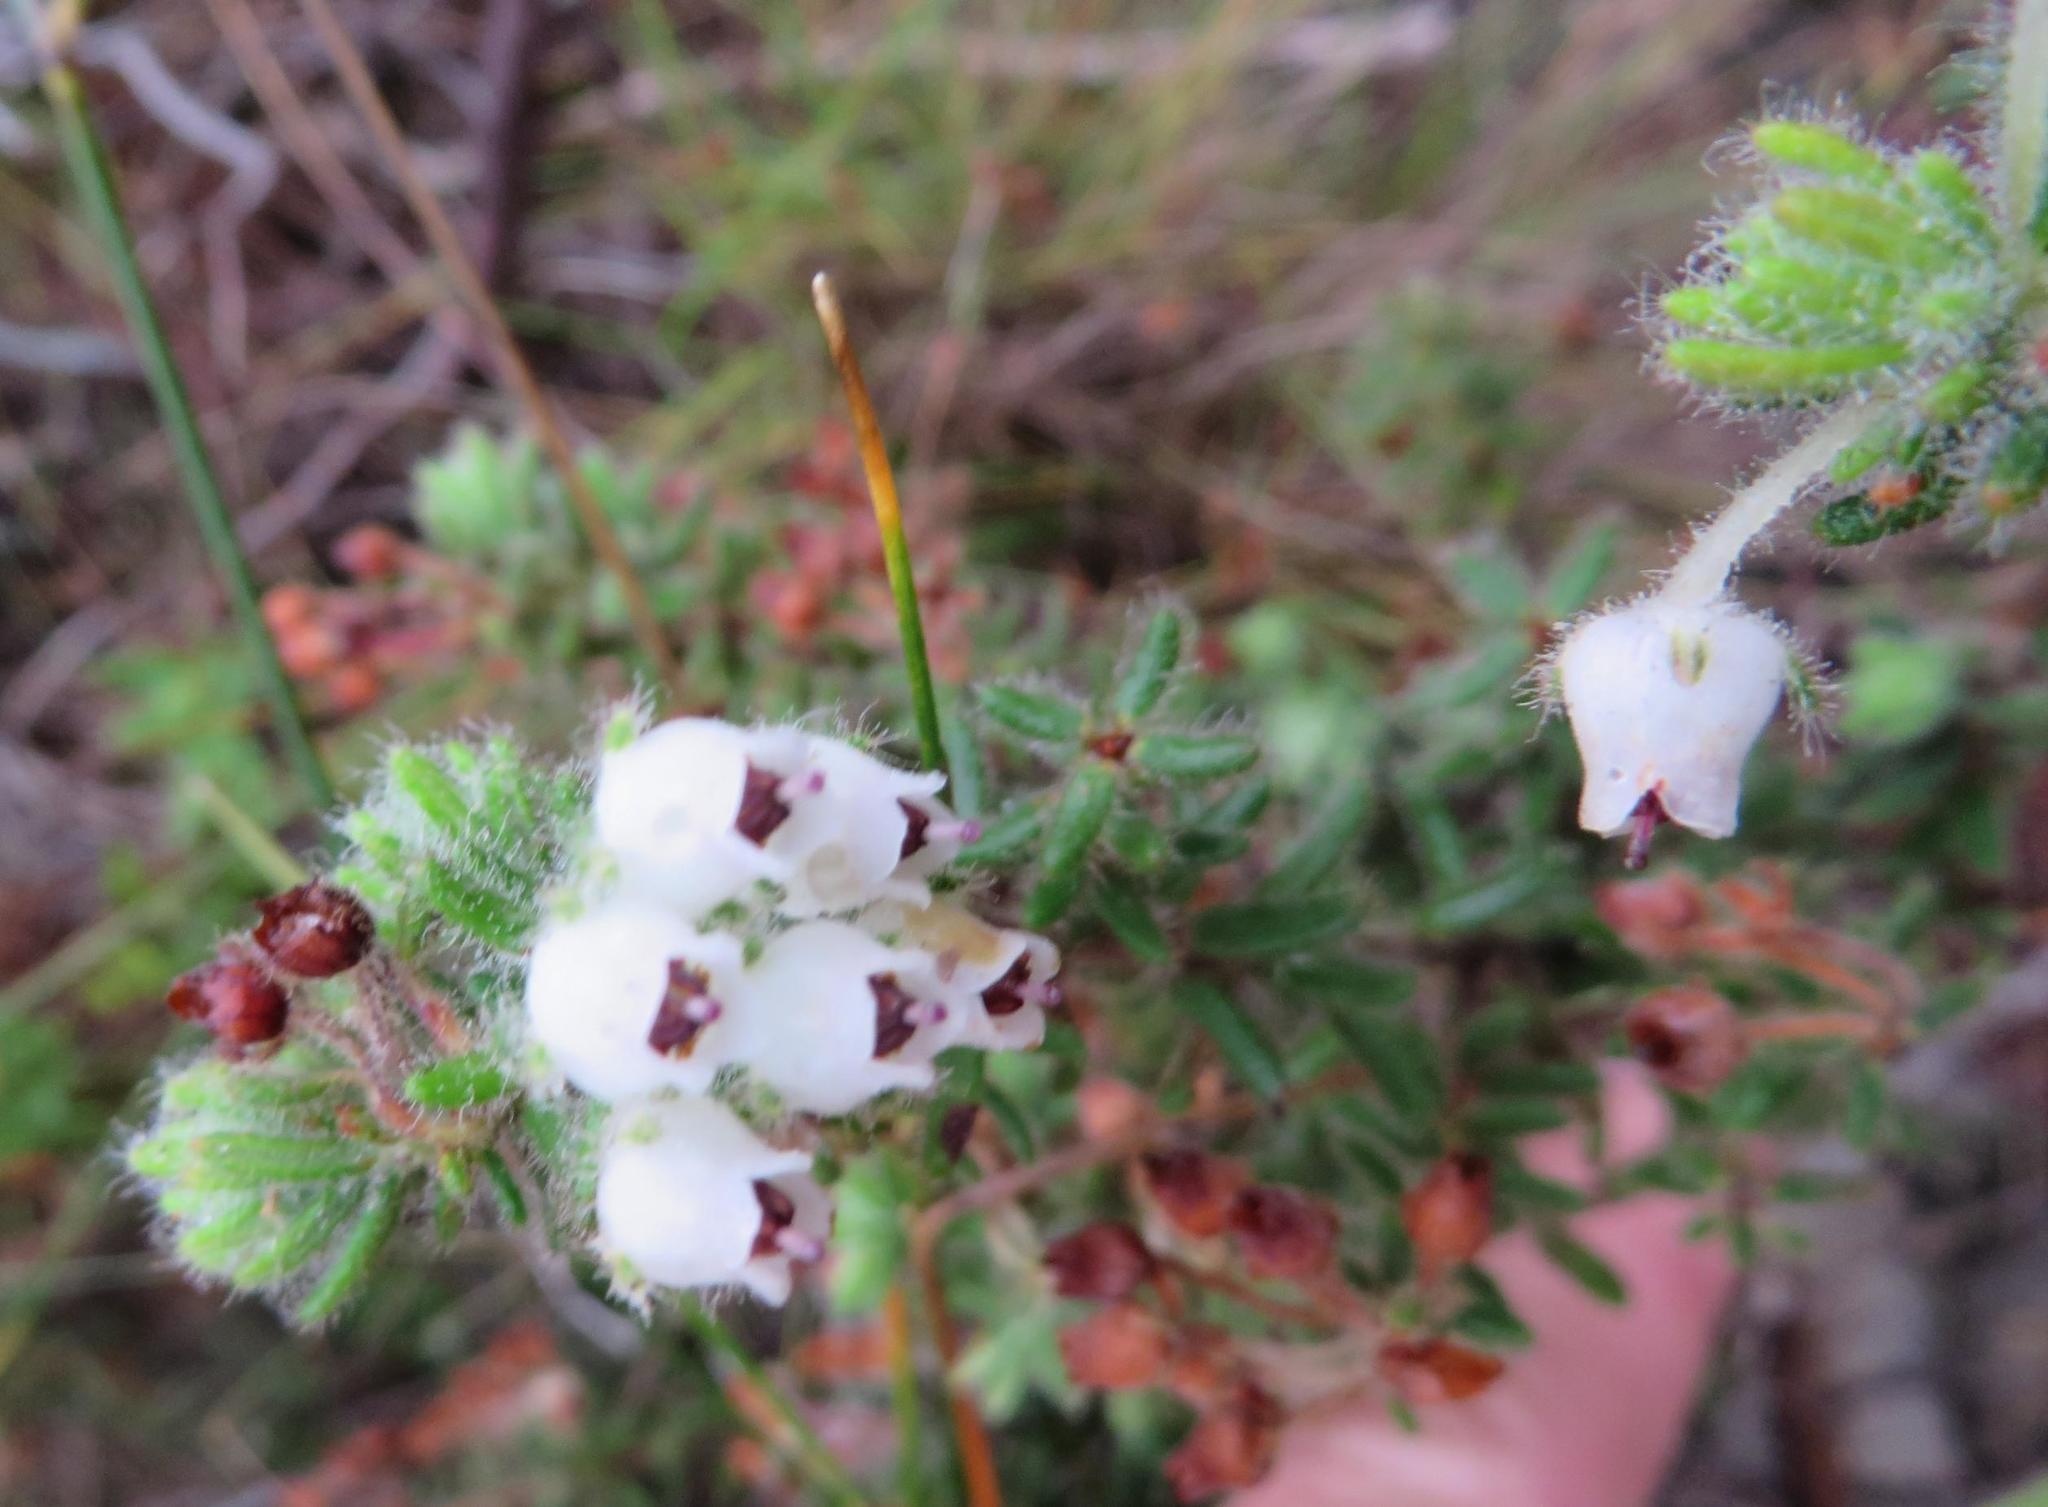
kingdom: Plantae
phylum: Tracheophyta
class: Magnoliopsida
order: Ericales
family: Ericaceae
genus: Erica
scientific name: Erica pannosa
